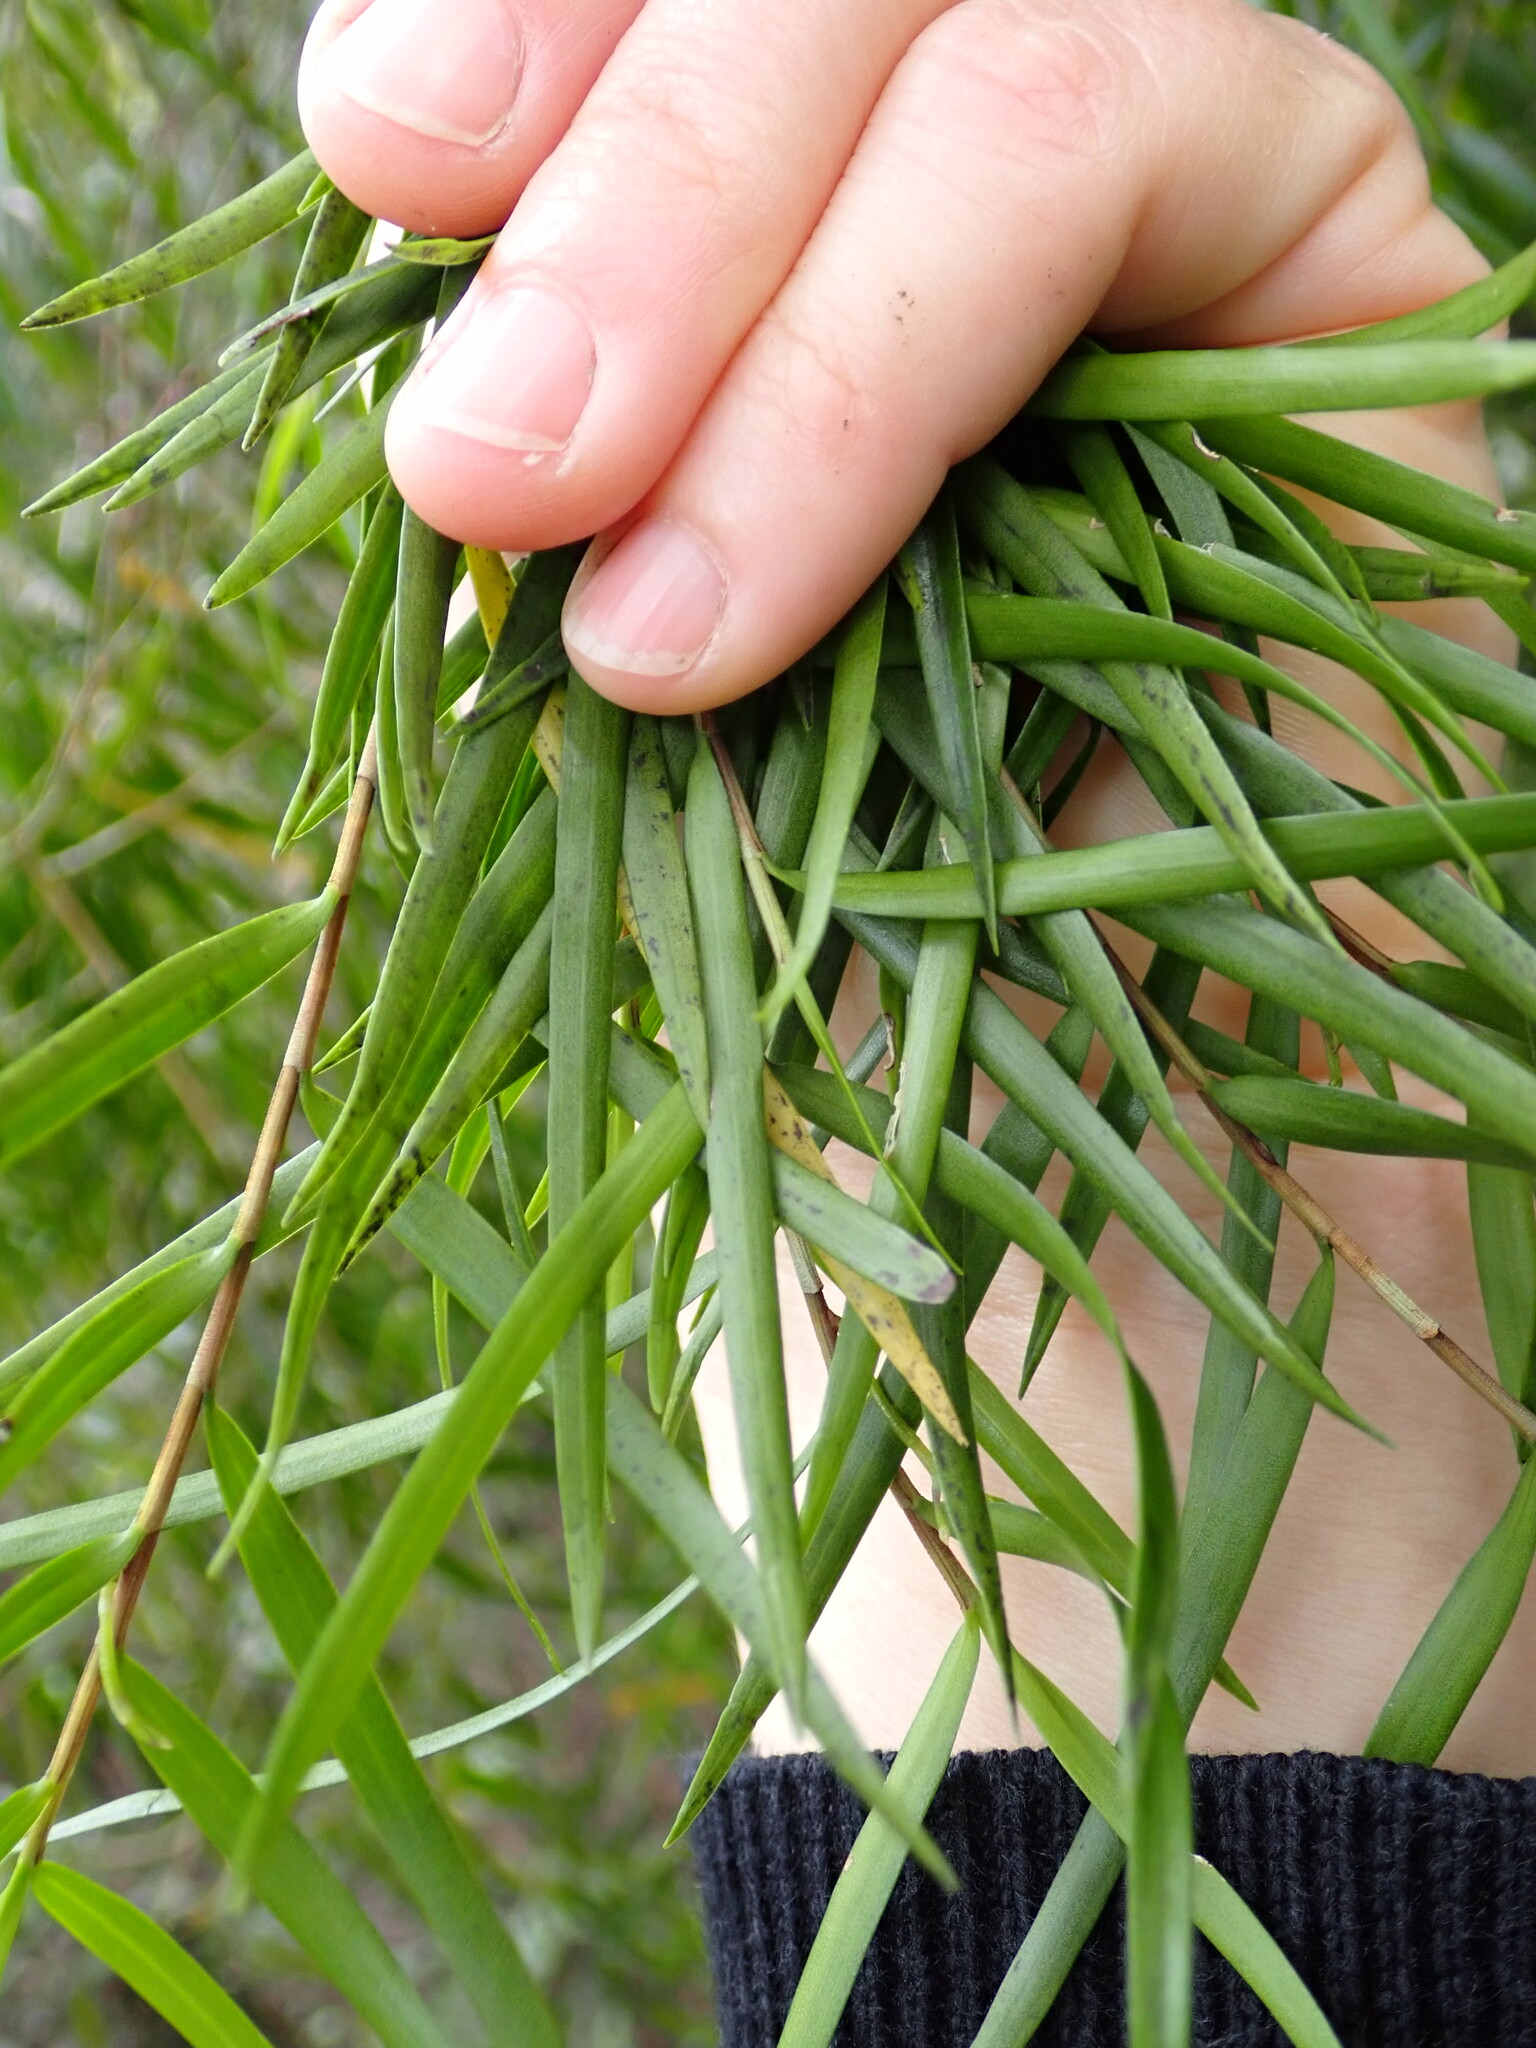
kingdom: Plantae
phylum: Tracheophyta
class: Liliopsida
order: Asparagales
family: Orchidaceae
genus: Earina
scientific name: Earina mucronata
